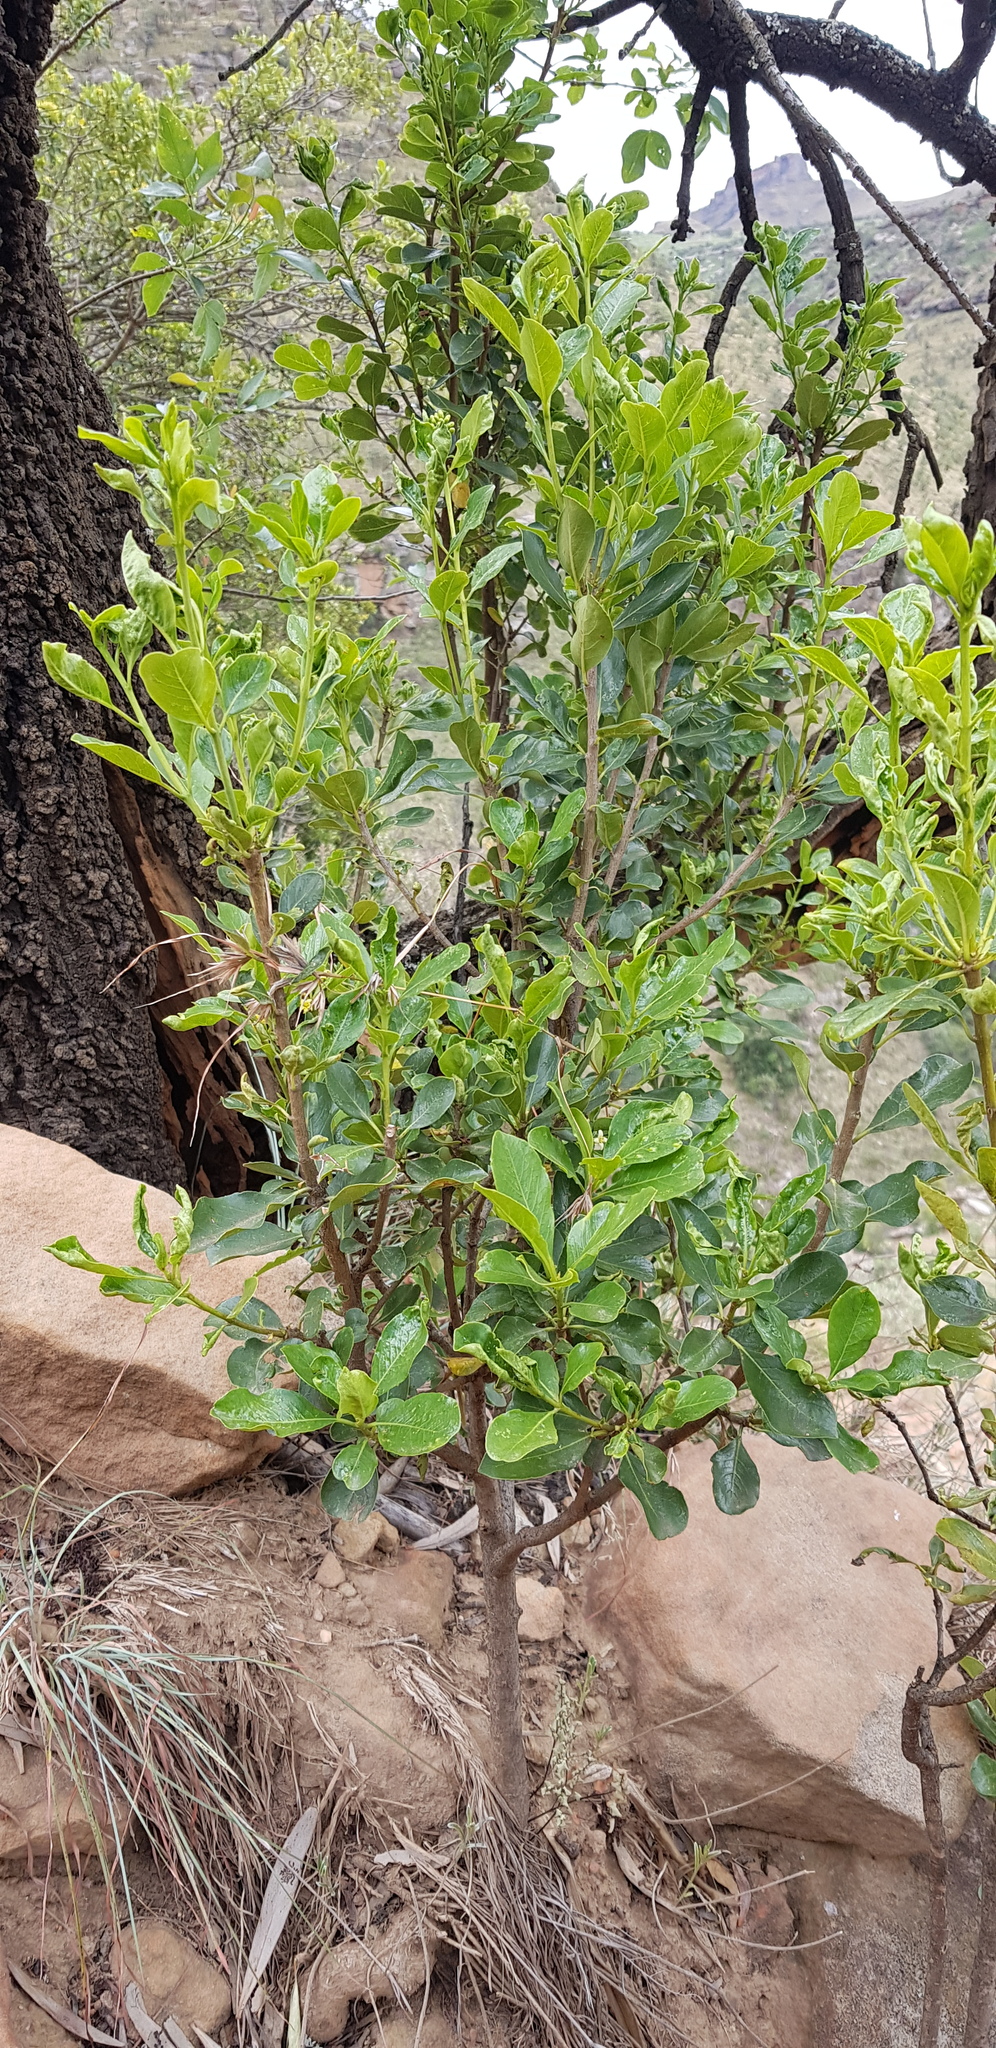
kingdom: Plantae
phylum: Tracheophyta
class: Magnoliopsida
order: Apiales
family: Pittosporaceae
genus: Pittosporum
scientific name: Pittosporum viridiflorum
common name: Cape cheesewood
